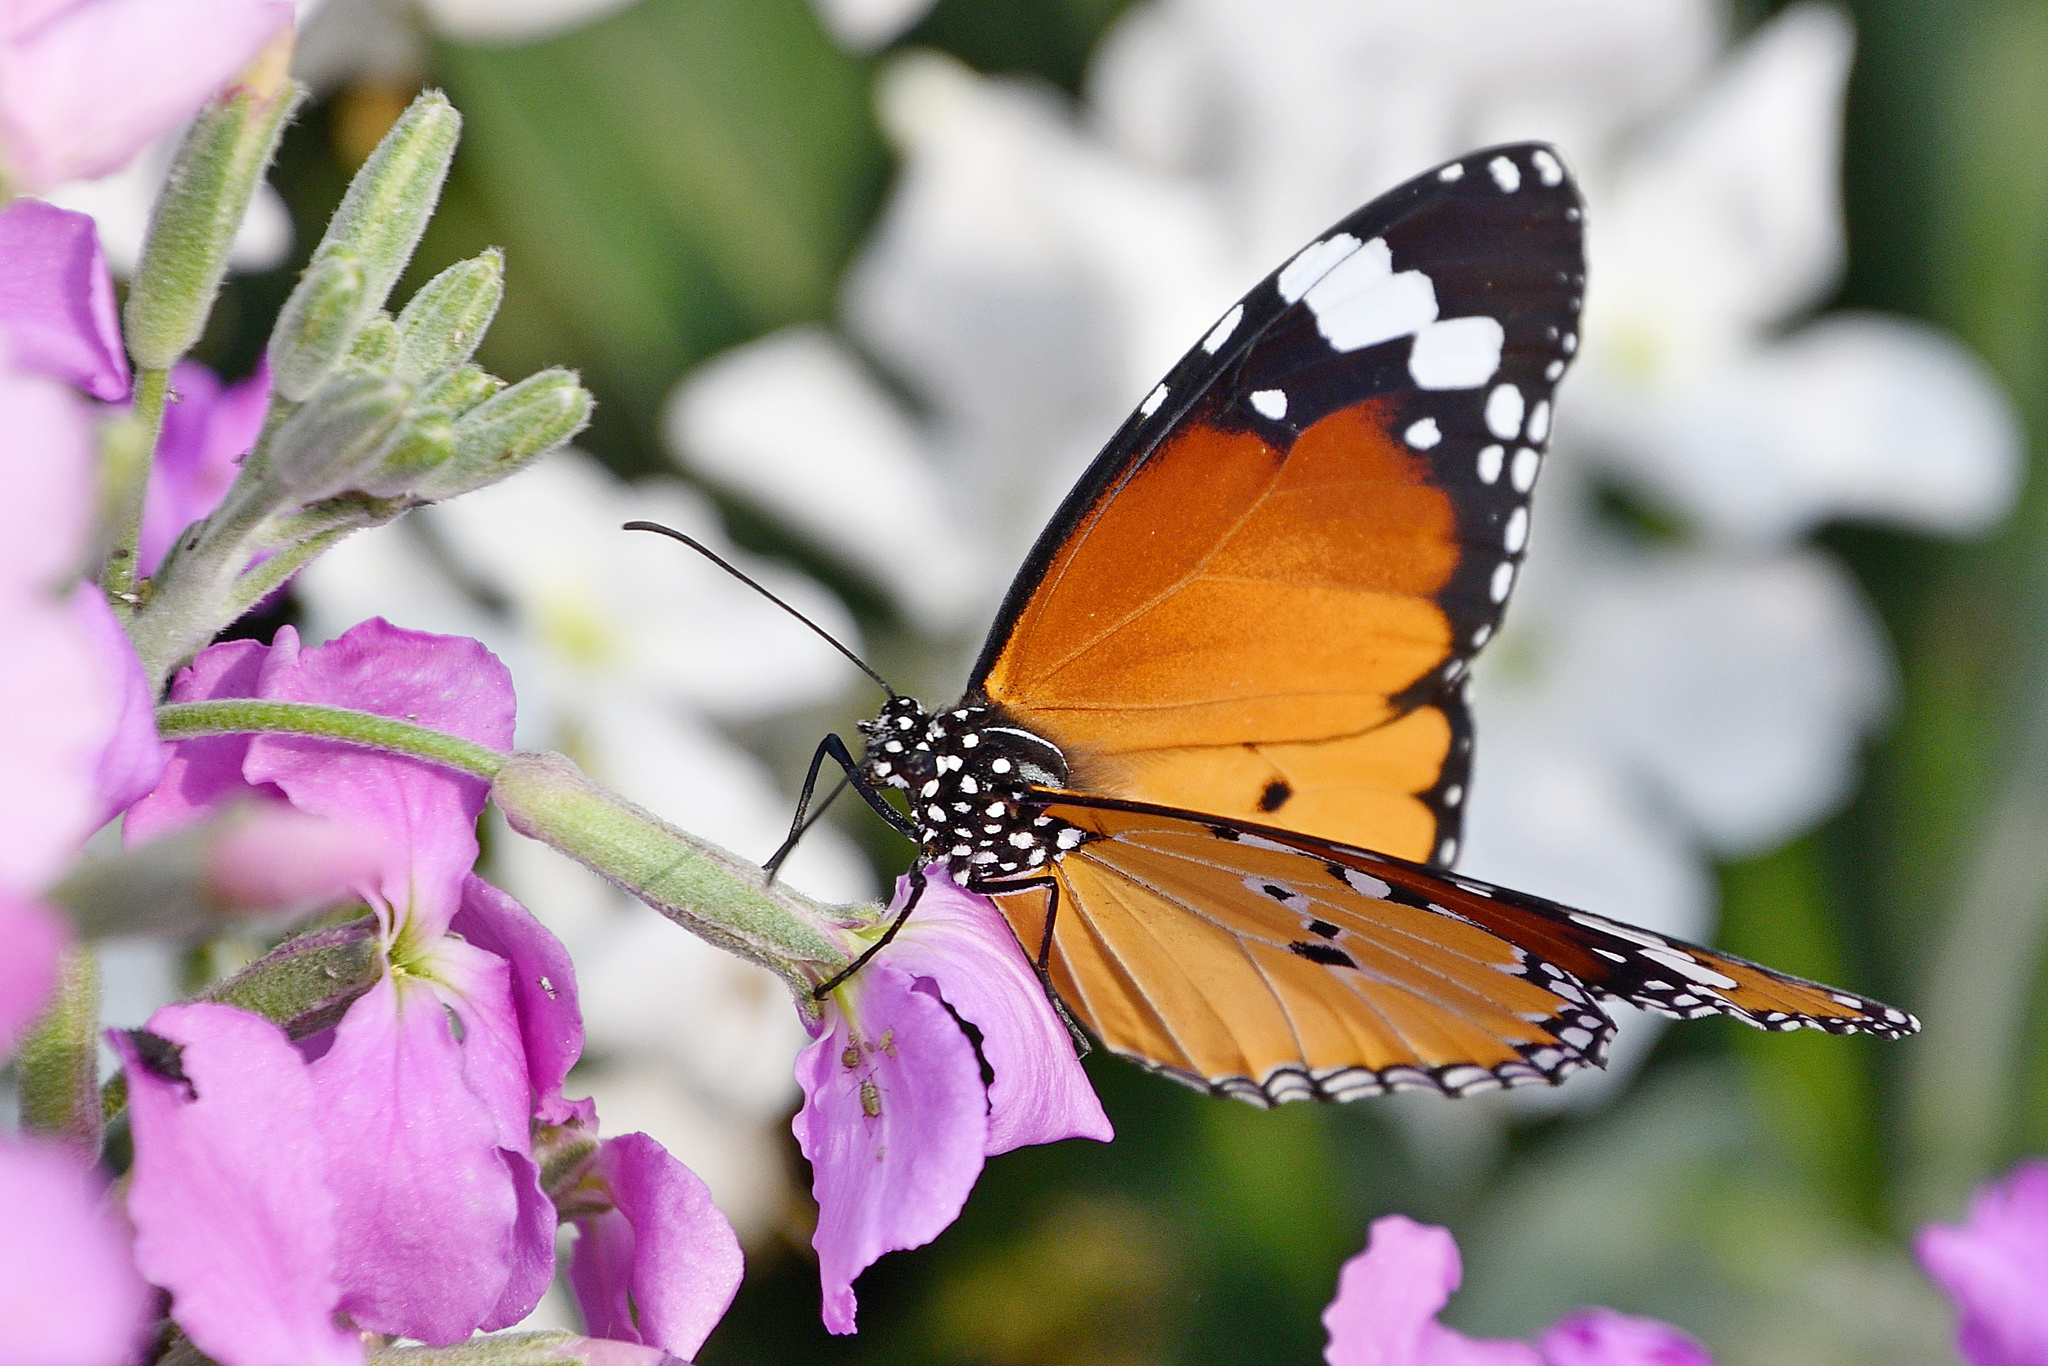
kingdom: Animalia
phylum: Arthropoda
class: Insecta
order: Lepidoptera
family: Nymphalidae
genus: Danaus
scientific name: Danaus chrysippus
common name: Plain tiger
